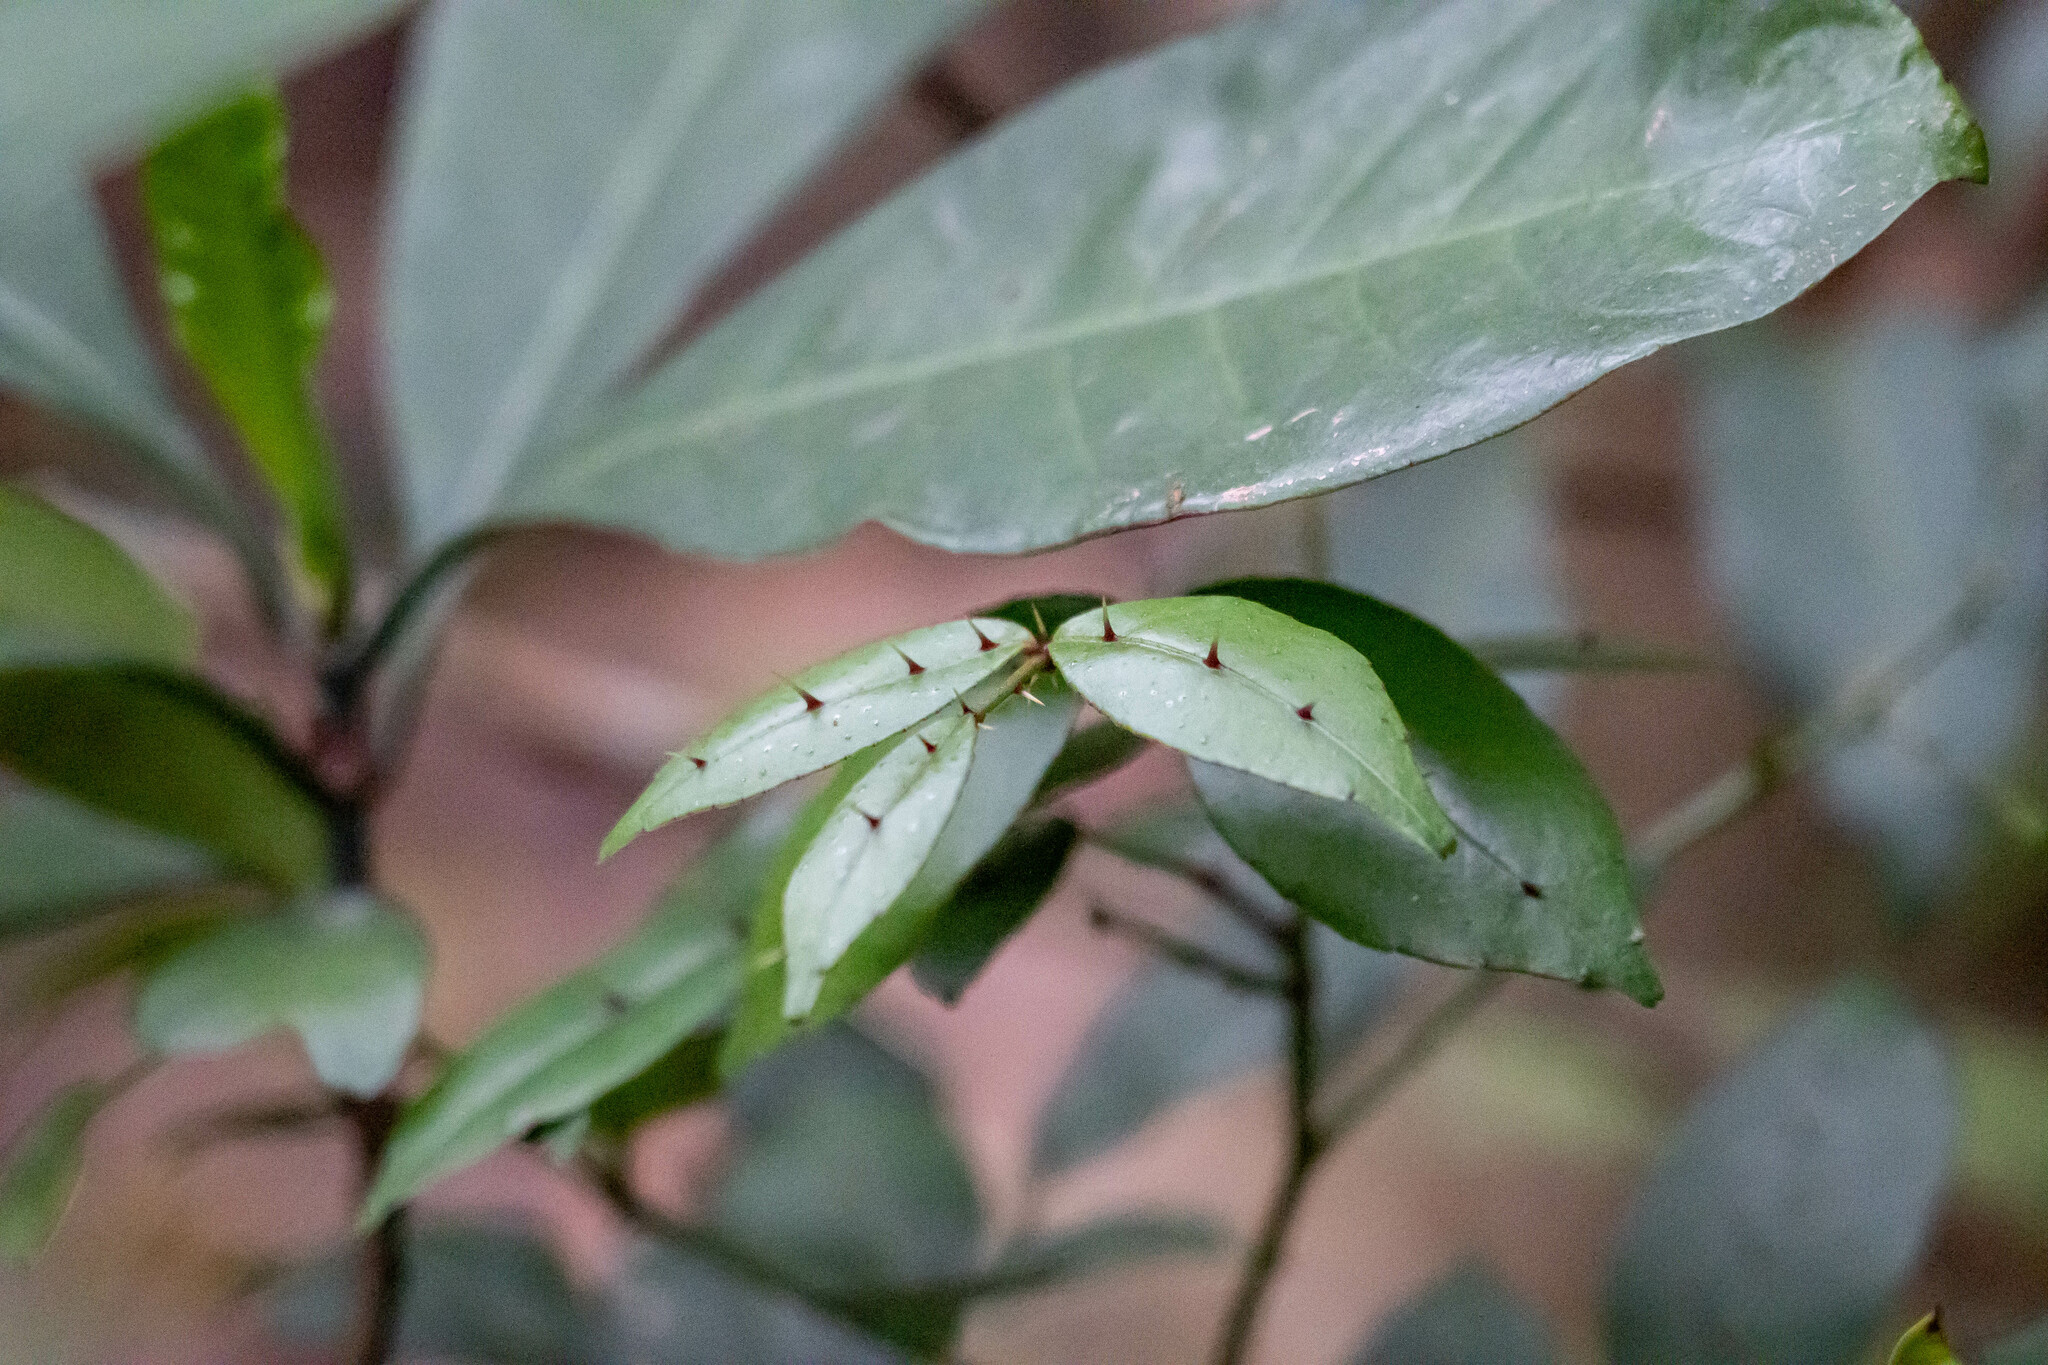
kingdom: Plantae
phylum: Tracheophyta
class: Magnoliopsida
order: Sapindales
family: Rutaceae
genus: Zanthoxylum
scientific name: Zanthoxylum nitidum
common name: Shiny-leaf prickly-ash
